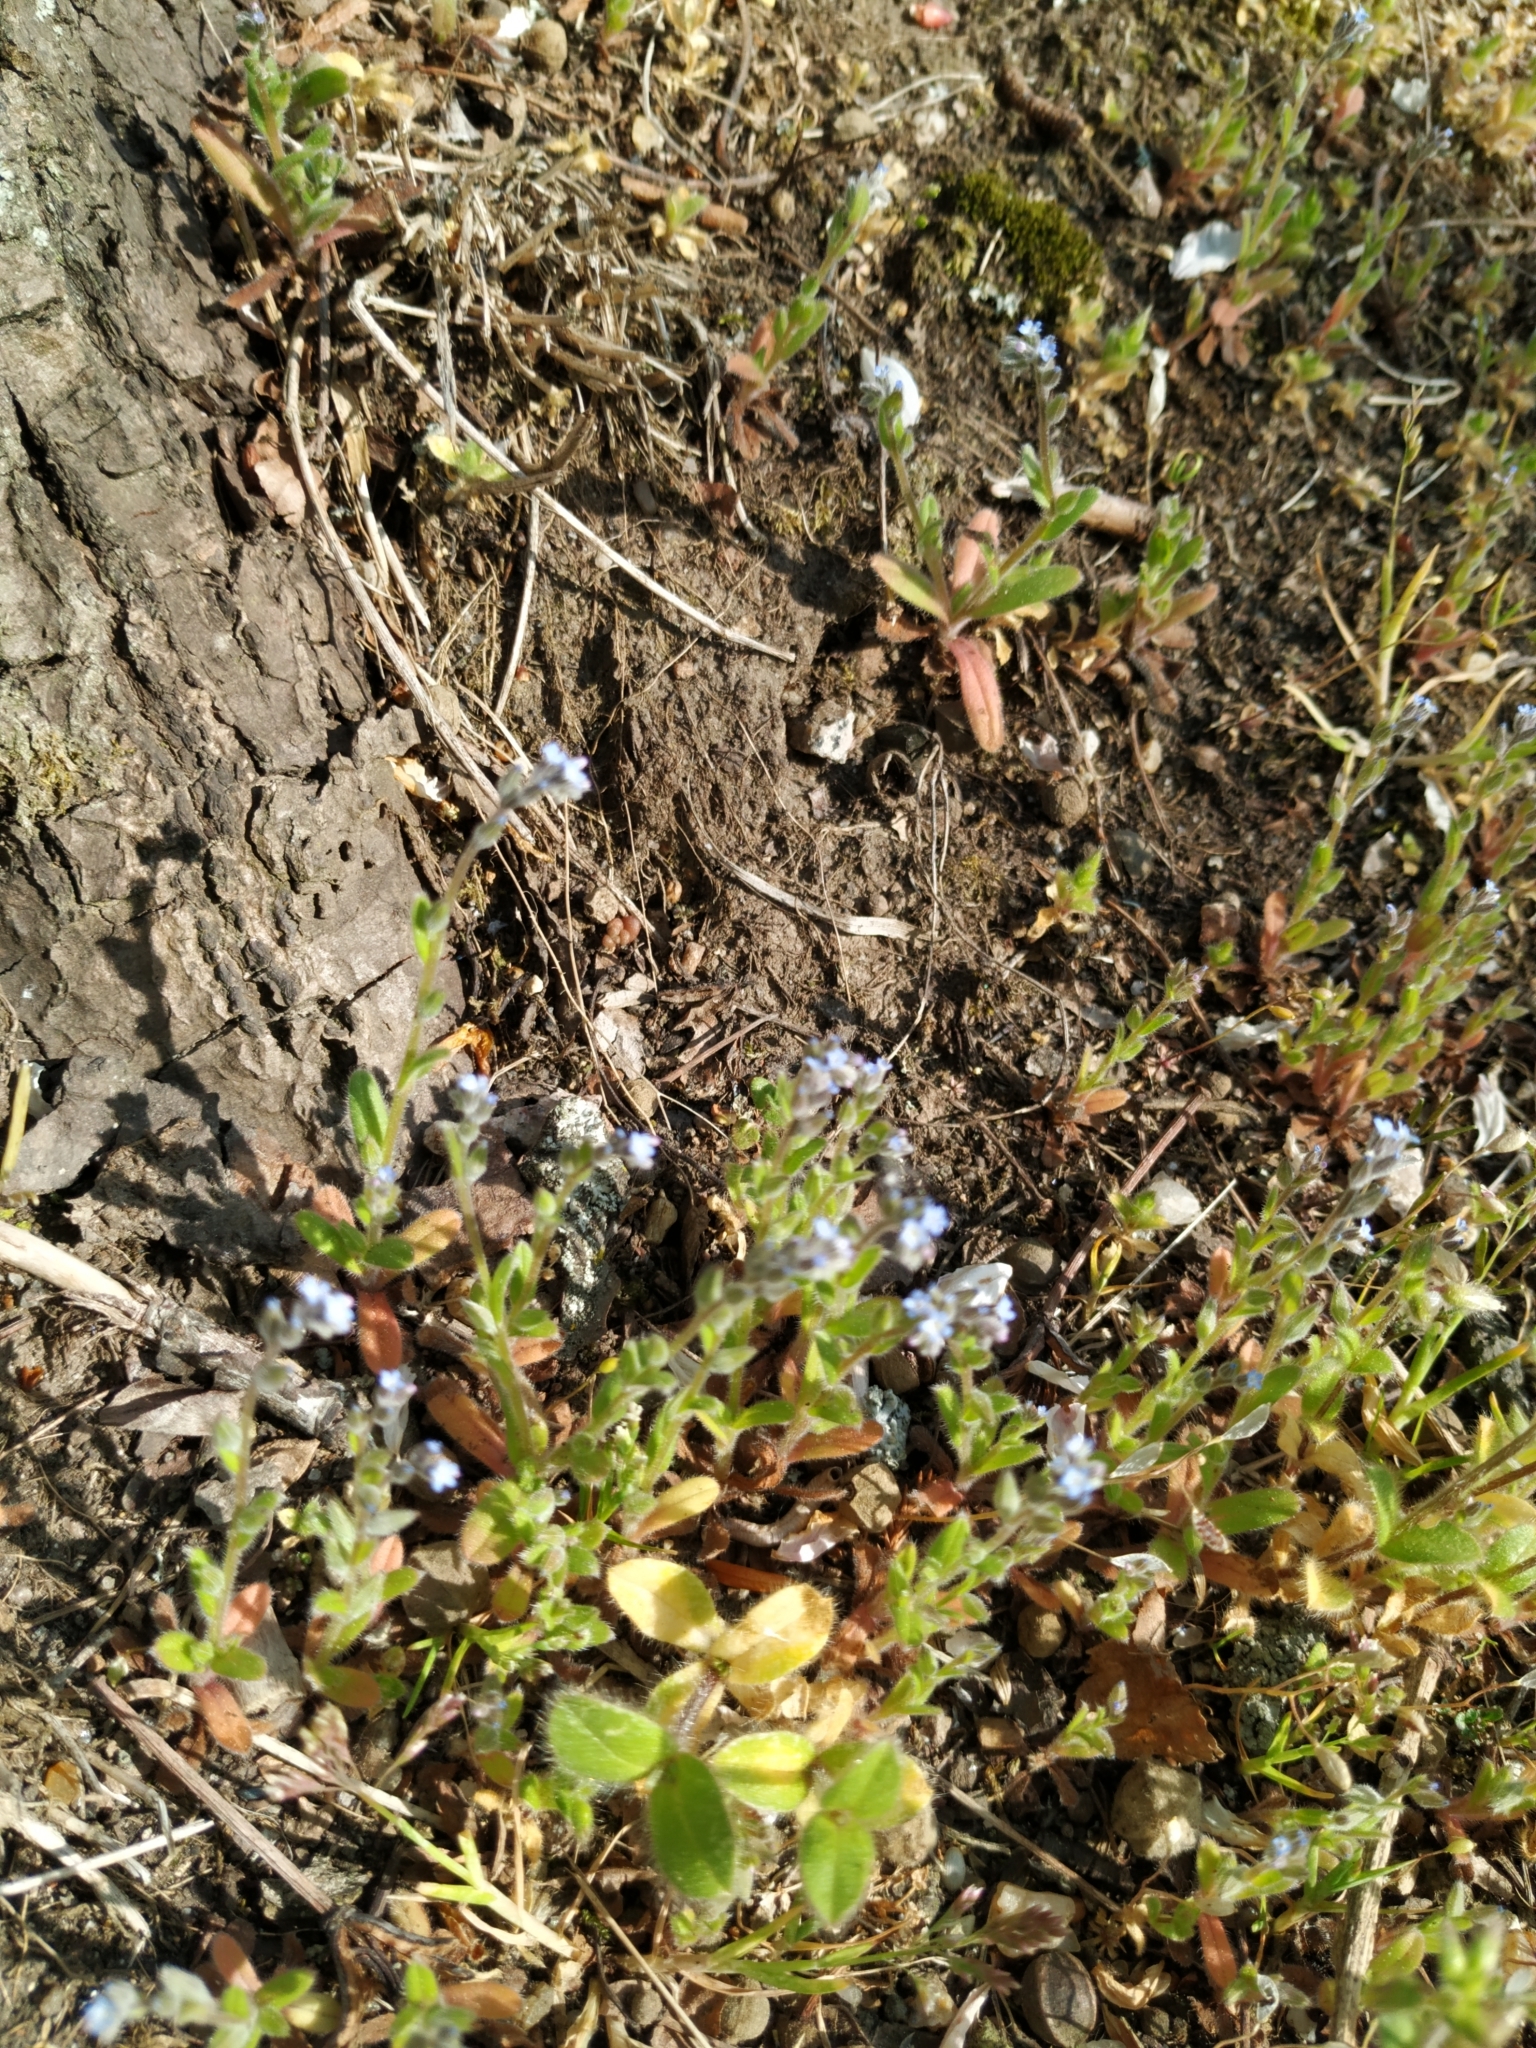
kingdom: Plantae
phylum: Tracheophyta
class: Magnoliopsida
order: Boraginales
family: Boraginaceae
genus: Myosotis
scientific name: Myosotis stricta
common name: Strict forget-me-not
